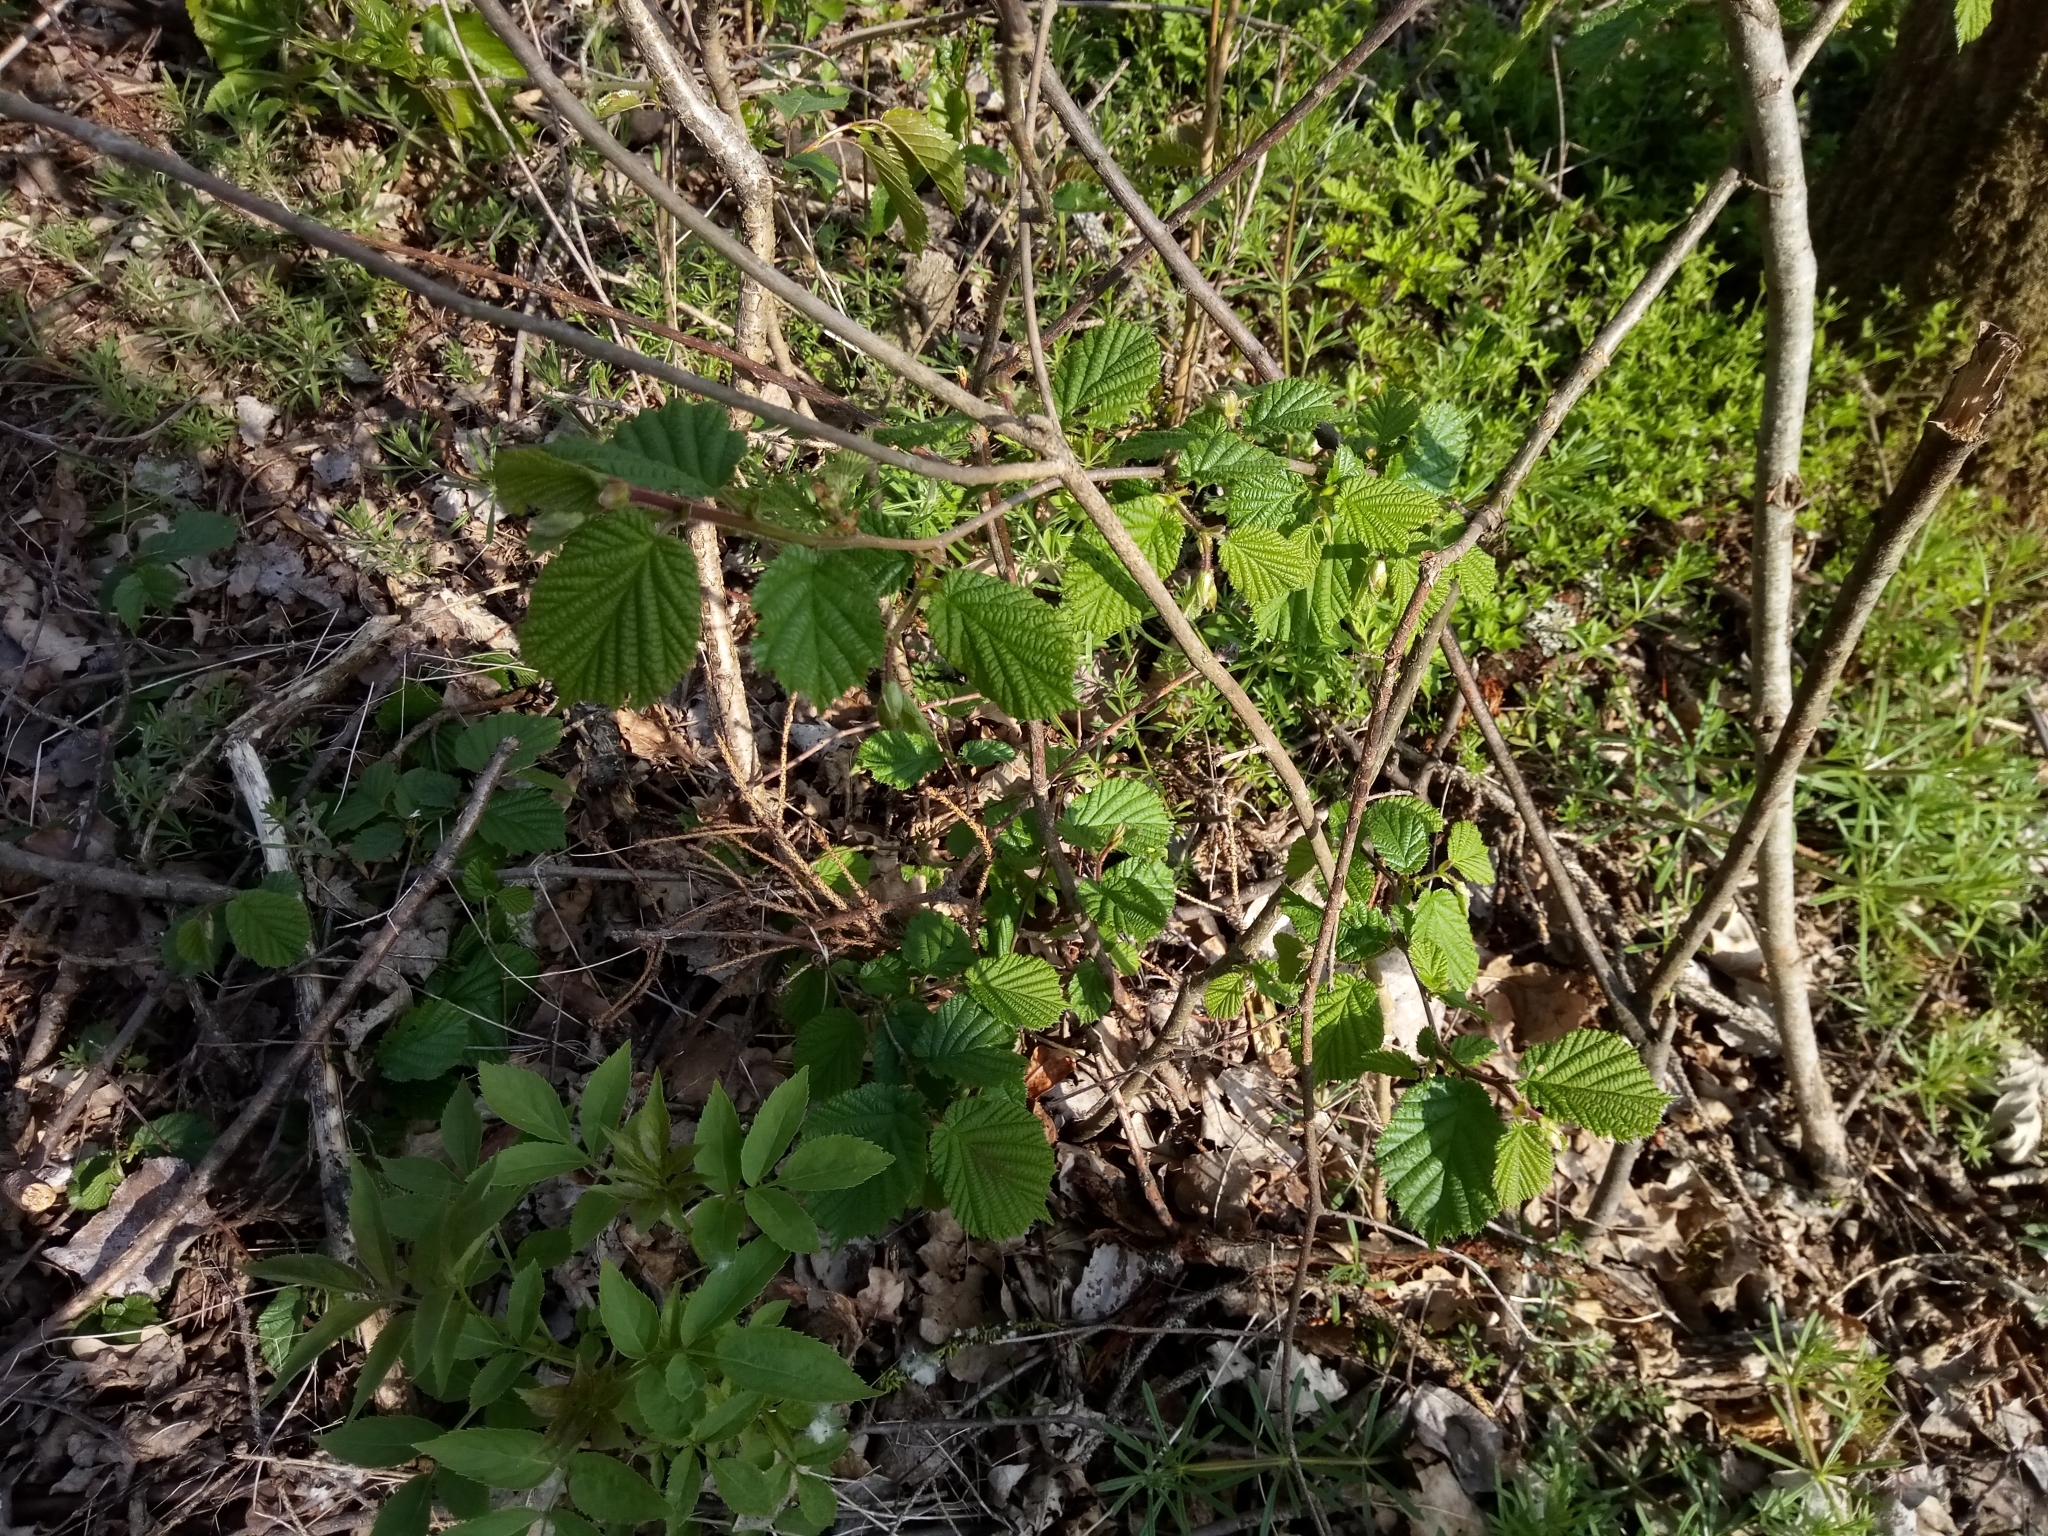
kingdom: Plantae
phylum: Tracheophyta
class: Magnoliopsida
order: Fagales
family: Betulaceae
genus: Corylus
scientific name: Corylus avellana
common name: European hazel
